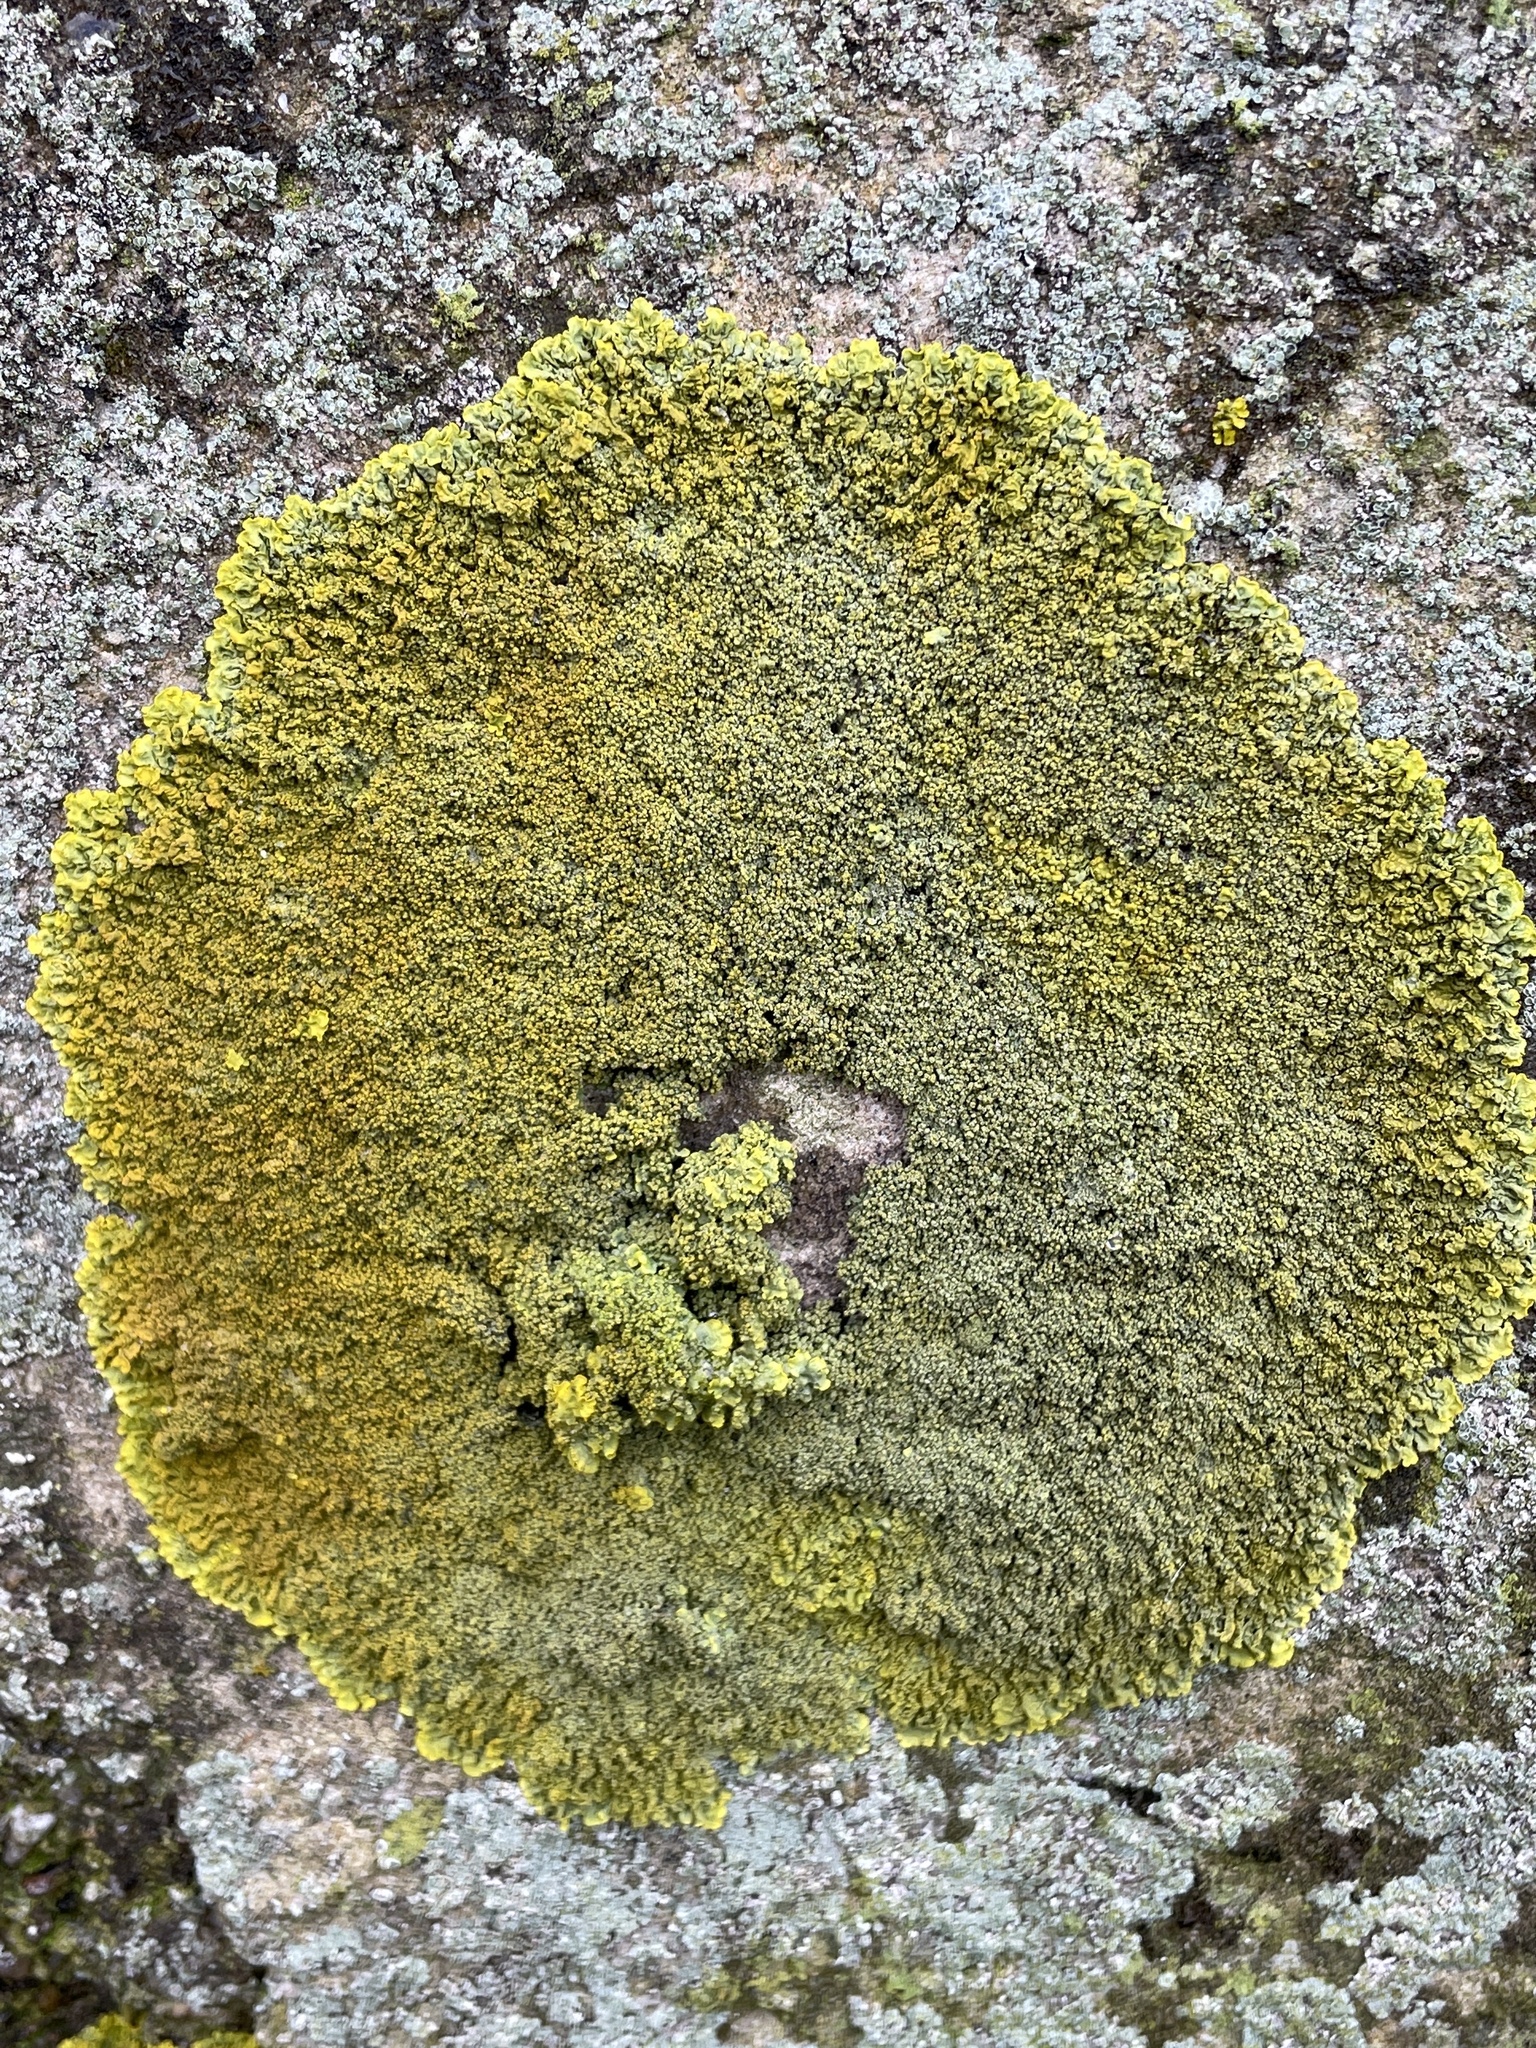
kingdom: Fungi
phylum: Ascomycota
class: Lecanoromycetes
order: Teloschistales
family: Teloschistaceae
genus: Xanthoria
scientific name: Xanthoria calcicola
